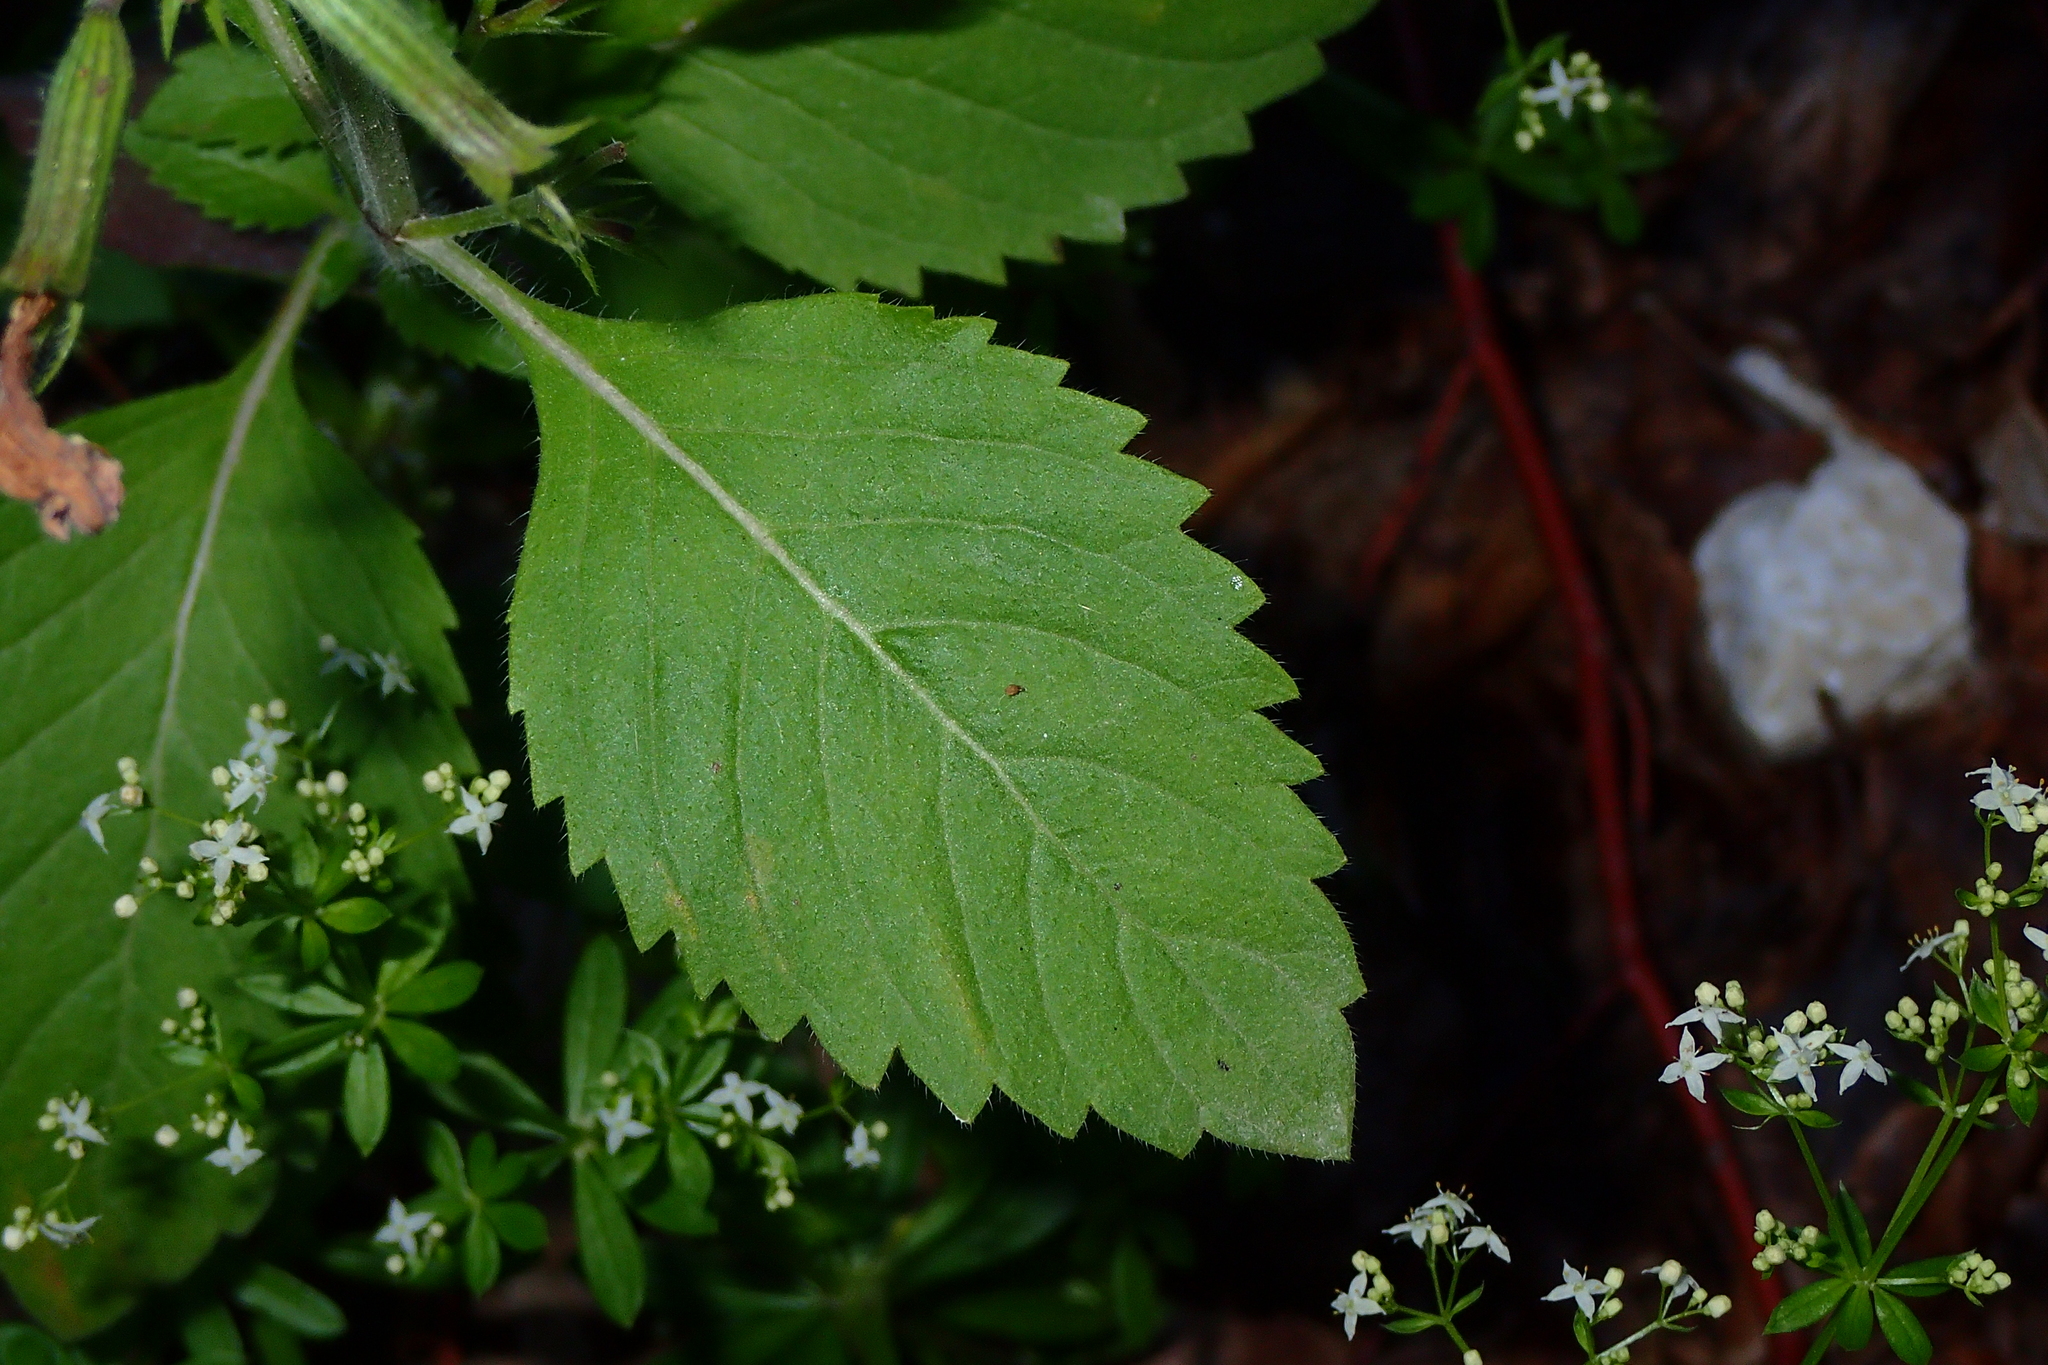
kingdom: Plantae
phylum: Tracheophyta
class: Magnoliopsida
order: Lamiales
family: Lamiaceae
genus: Clinopodium
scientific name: Clinopodium grandiflorum
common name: Greater calamint
